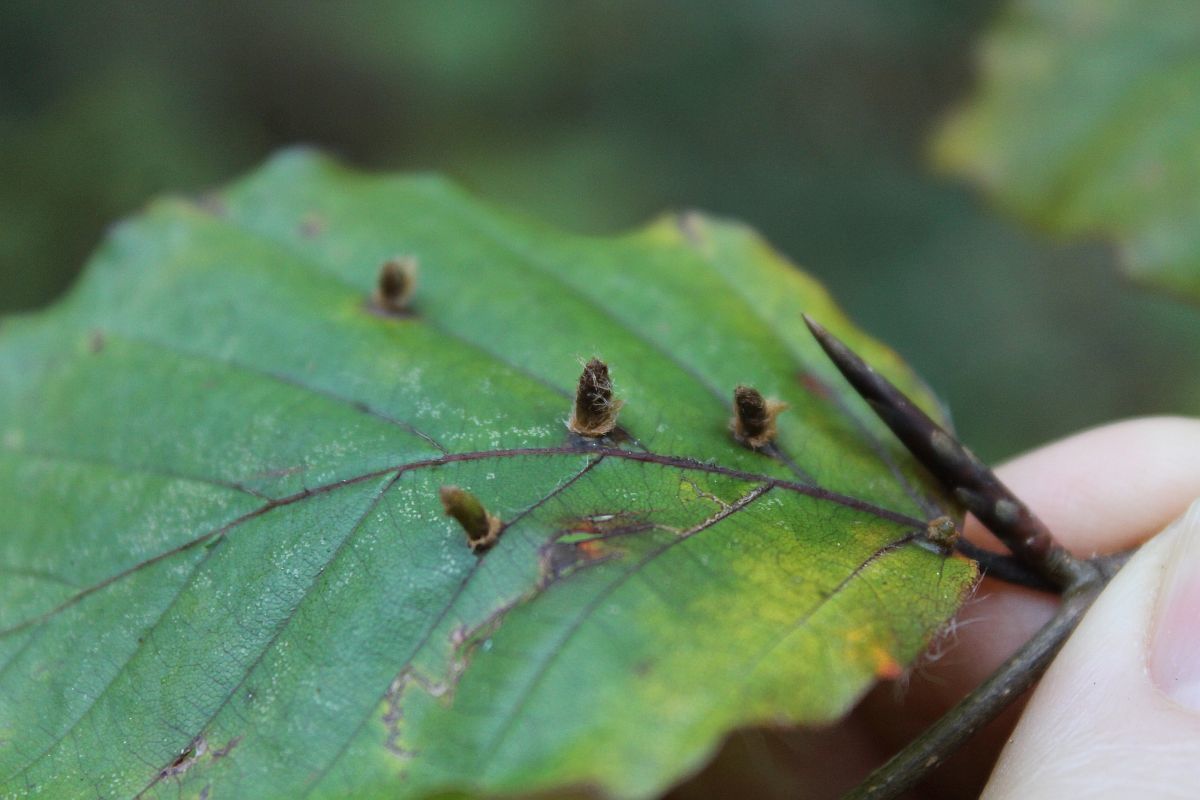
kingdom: Animalia
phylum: Arthropoda
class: Insecta
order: Diptera
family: Cecidomyiidae
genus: Hartigiola
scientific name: Hartigiola annulipes
